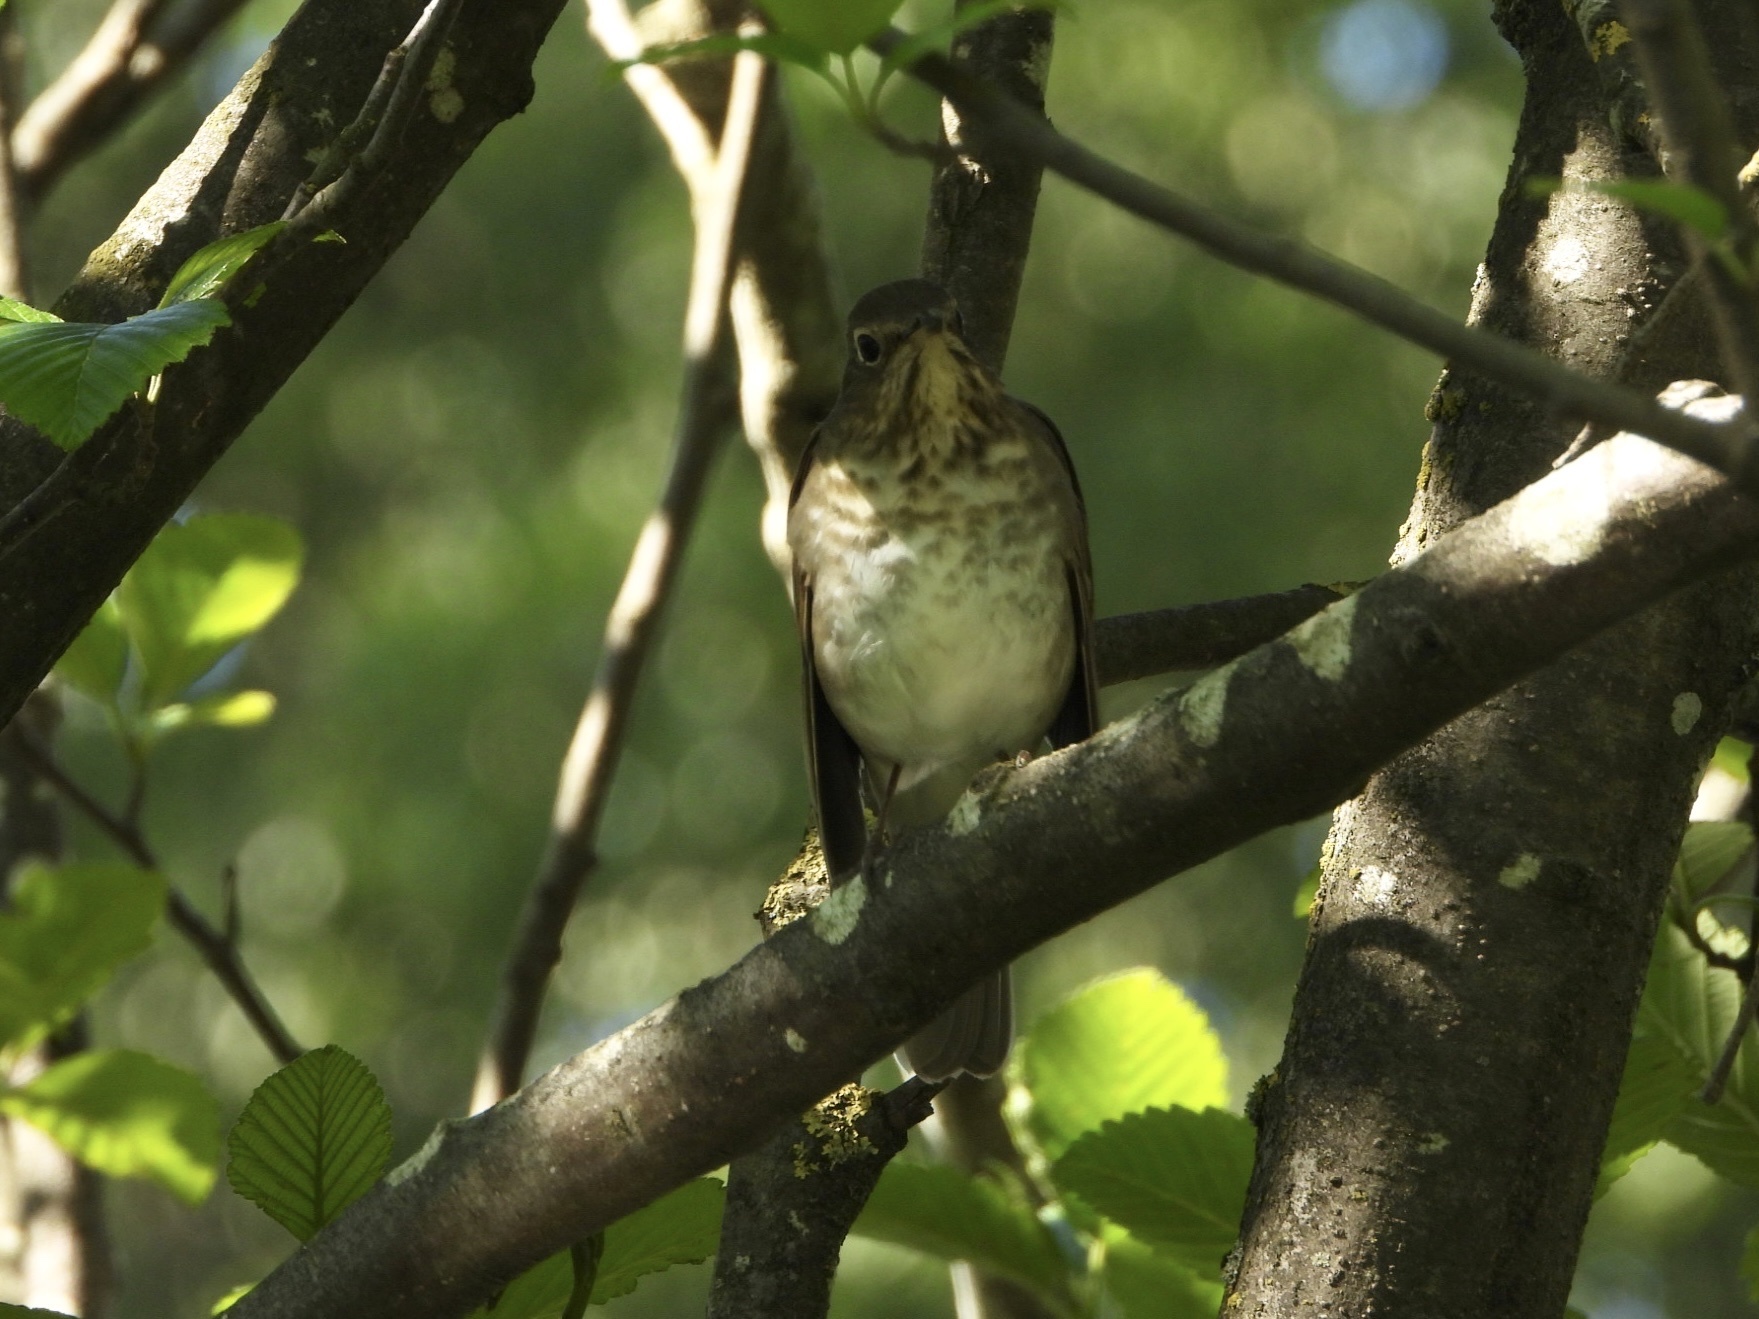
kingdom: Animalia
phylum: Chordata
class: Aves
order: Passeriformes
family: Turdidae
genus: Catharus
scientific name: Catharus ustulatus
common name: Swainson's thrush
